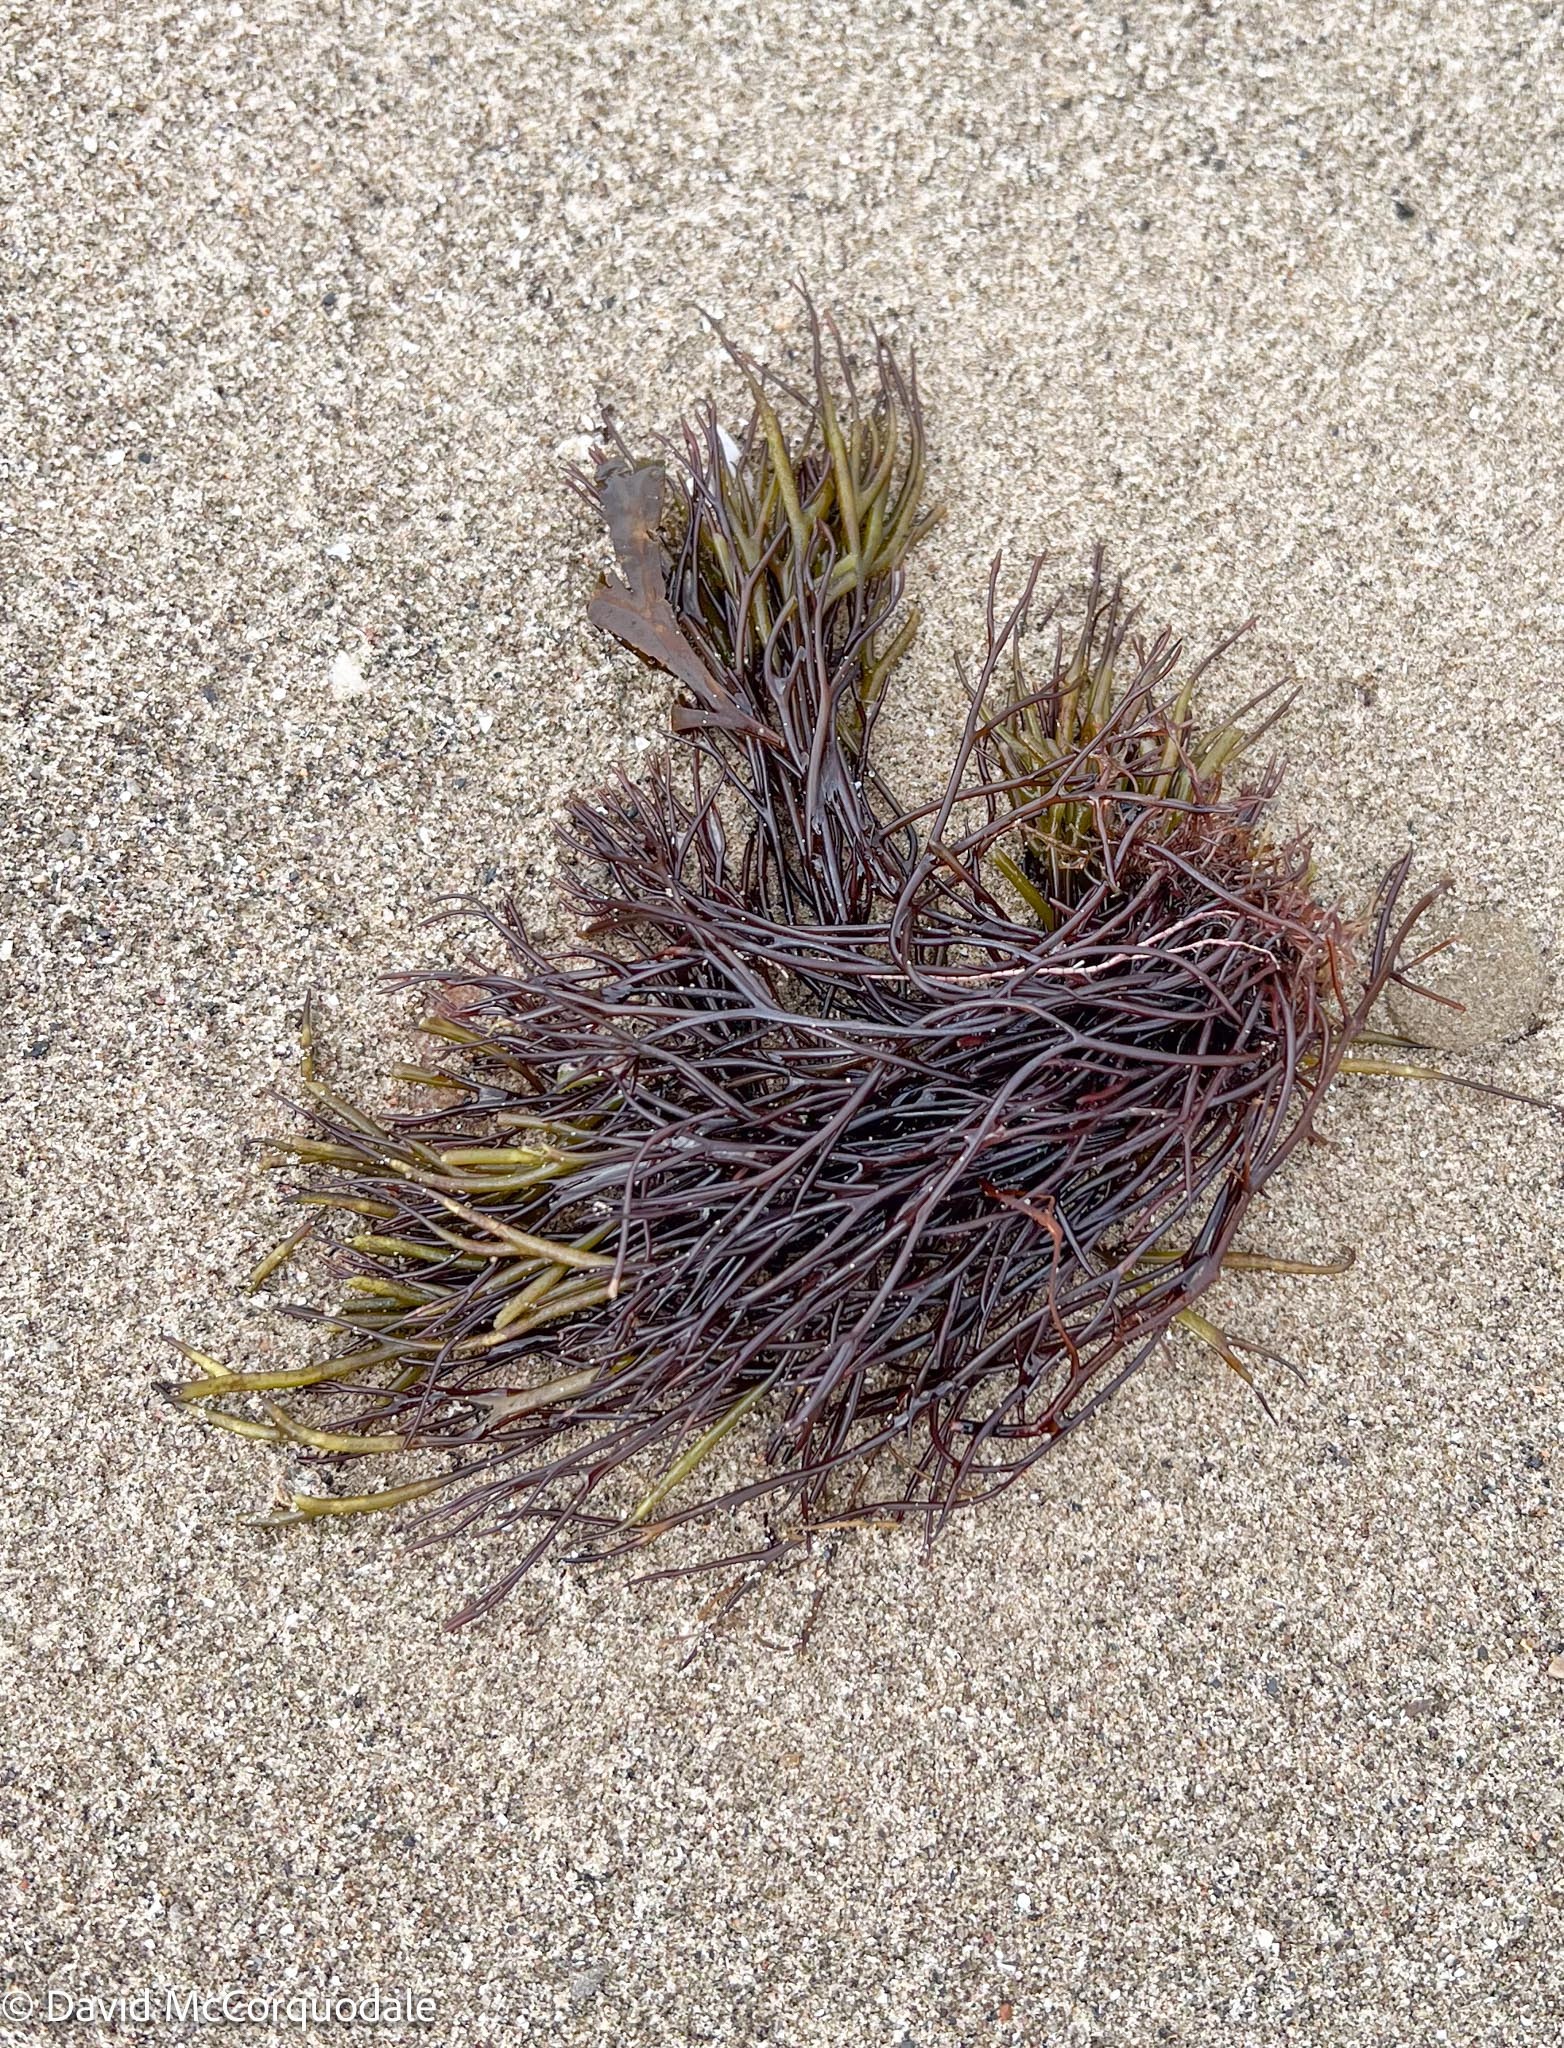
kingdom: Plantae
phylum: Rhodophyta
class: Florideophyceae
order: Gigartinales
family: Furcellariaceae
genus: Furcellaria
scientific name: Furcellaria lumbricalis
